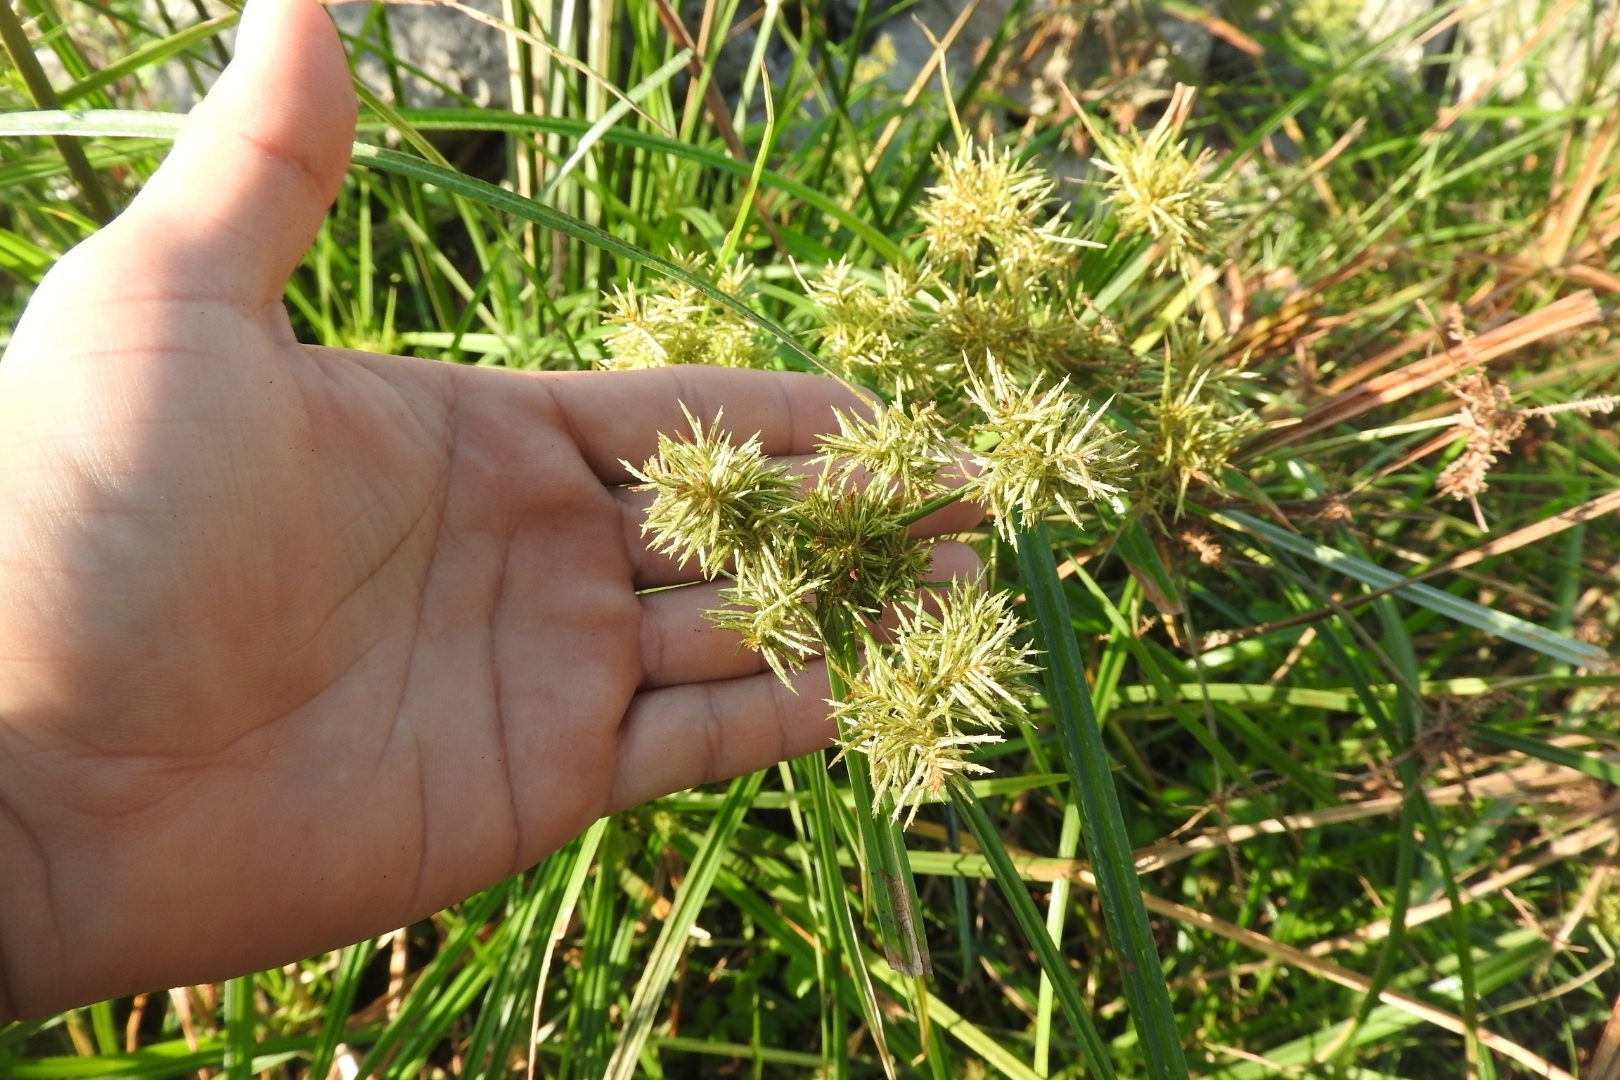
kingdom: Plantae
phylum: Tracheophyta
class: Liliopsida
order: Poales
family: Cyperaceae
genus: Cyperus
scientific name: Cyperus odoratus
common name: Fragrant flatsedge
